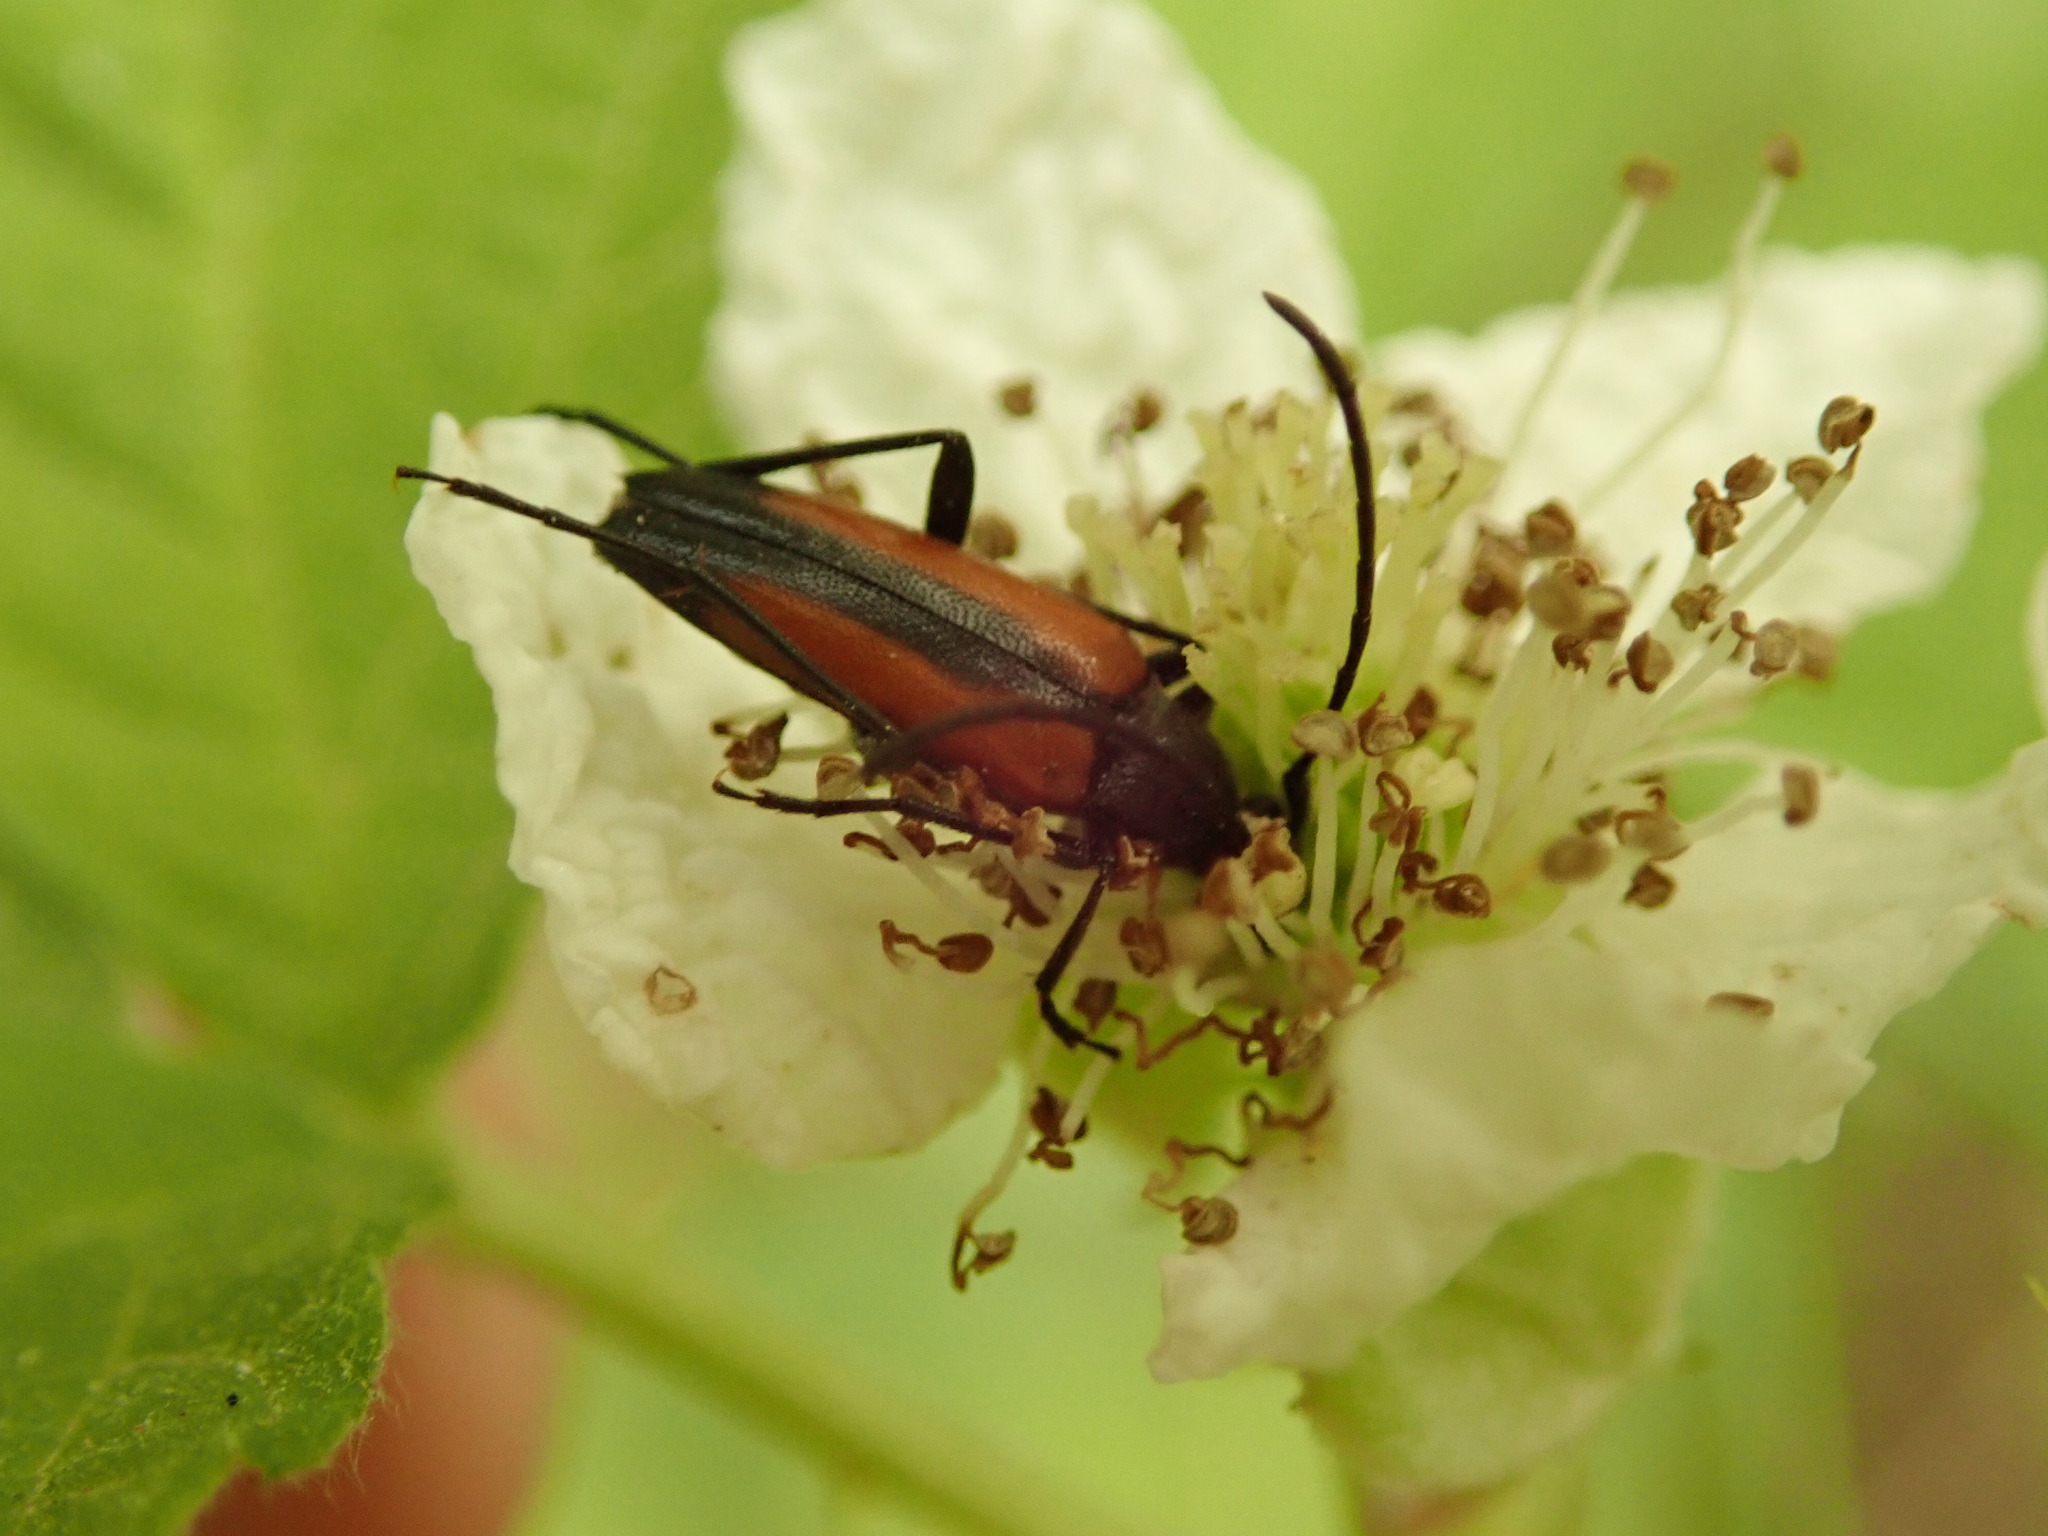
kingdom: Animalia
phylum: Arthropoda
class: Insecta
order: Coleoptera
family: Cerambycidae
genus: Stenurella
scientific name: Stenurella melanura
